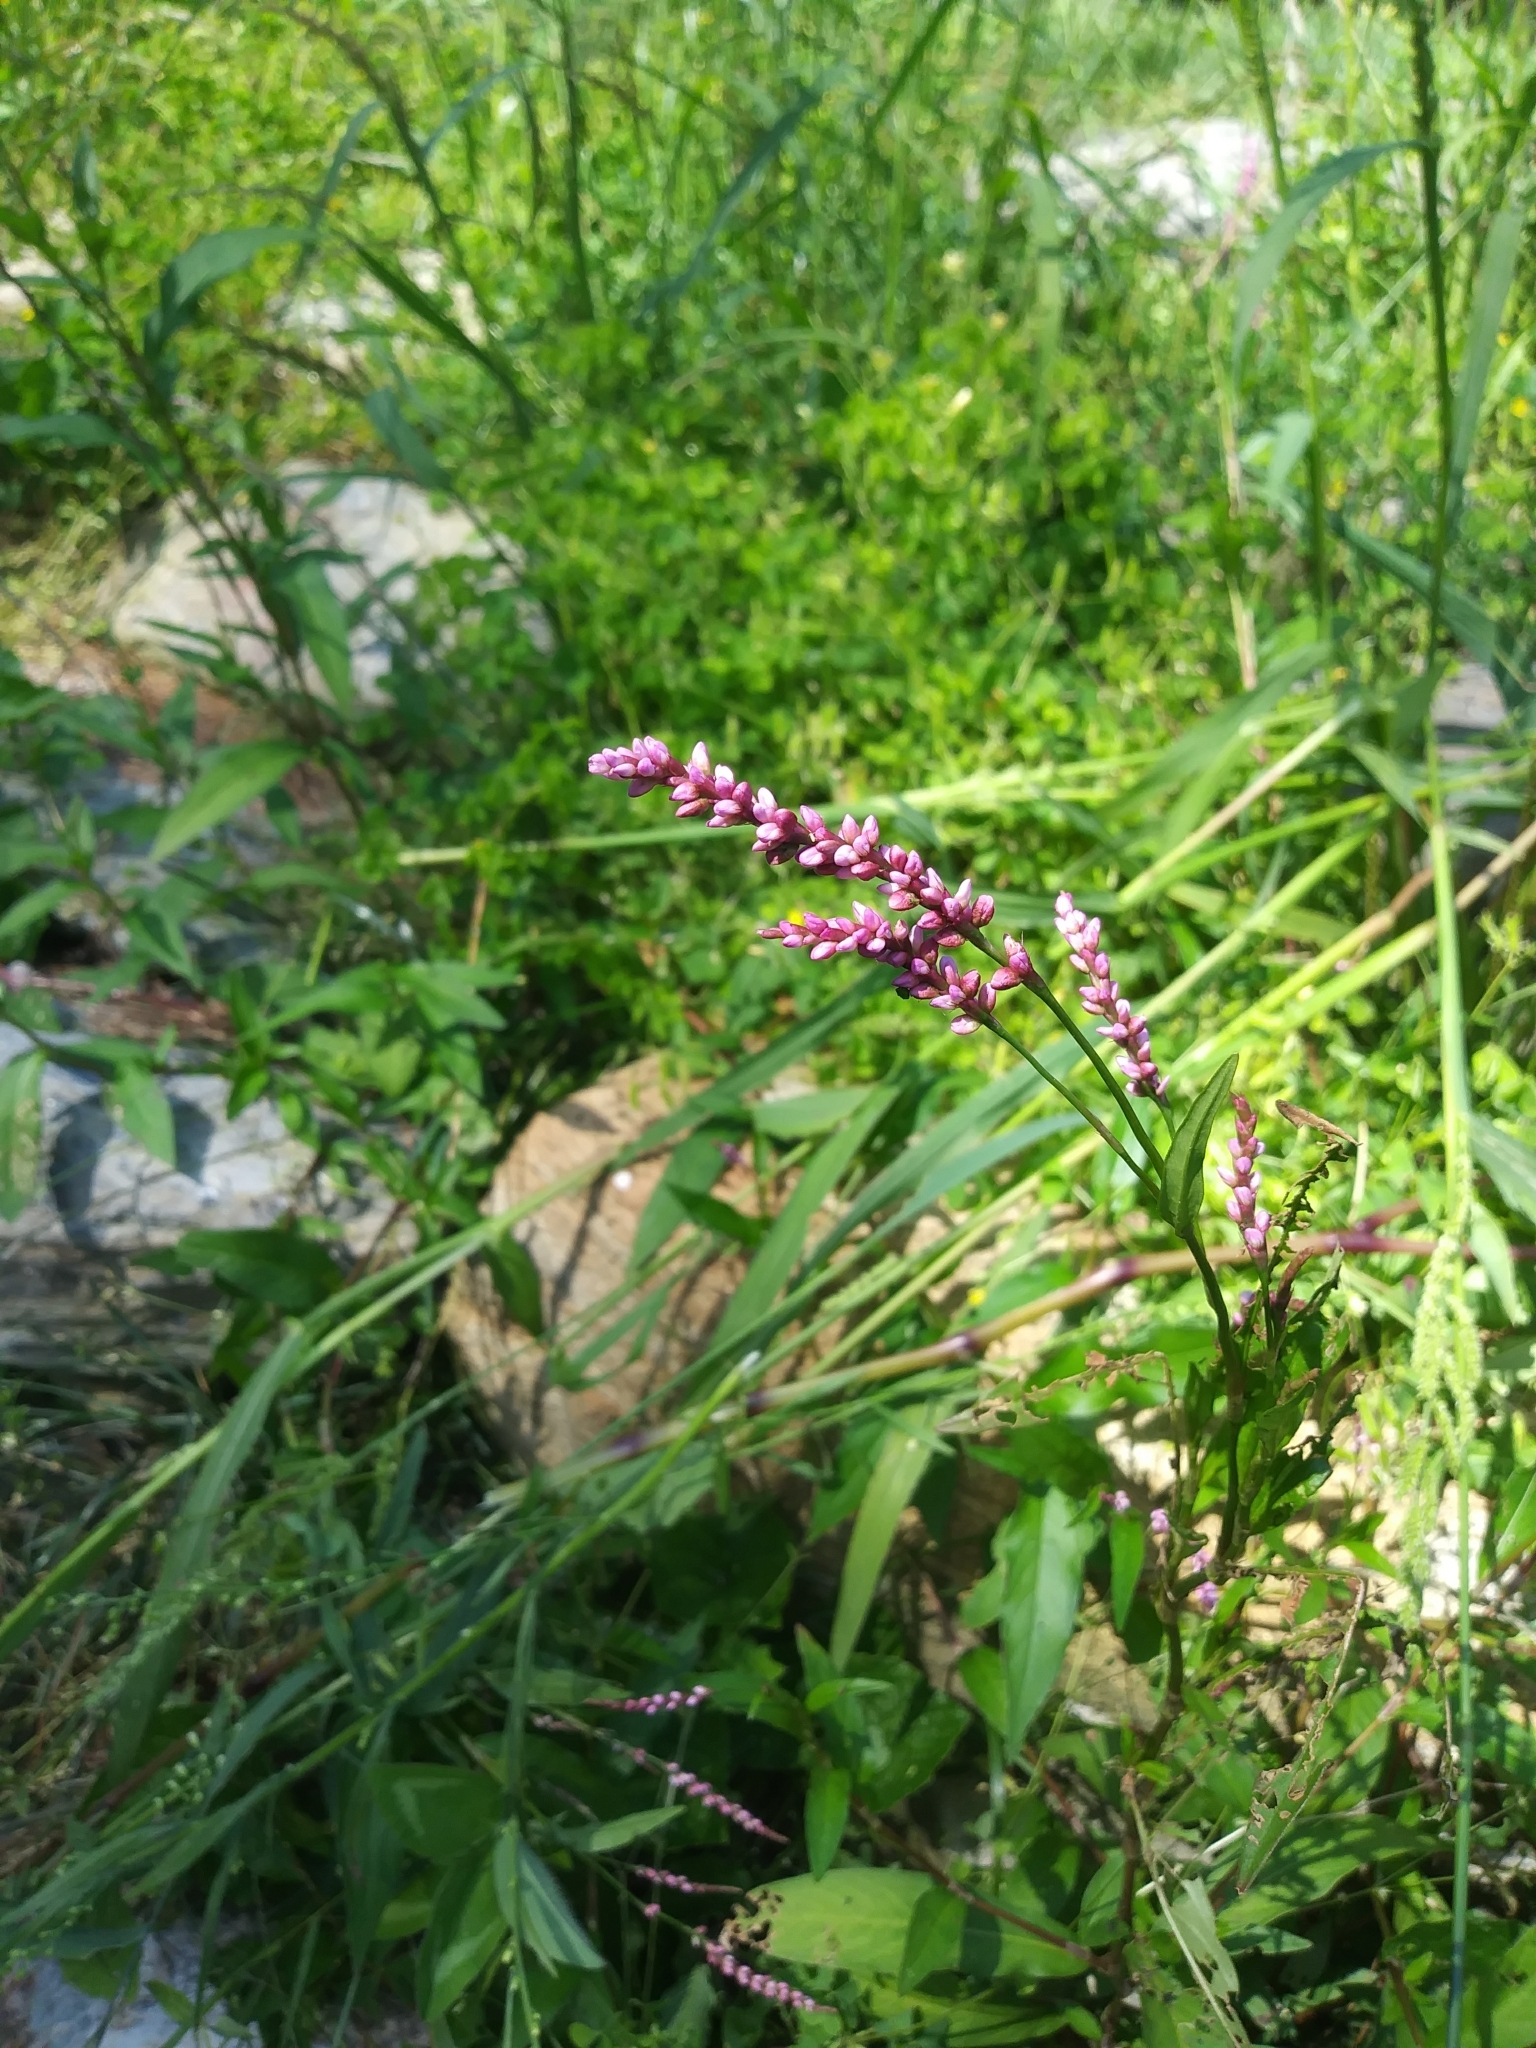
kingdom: Plantae
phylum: Tracheophyta
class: Magnoliopsida
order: Caryophyllales
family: Polygonaceae
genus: Persicaria
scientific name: Persicaria longiseta
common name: Bristly lady's-thumb
